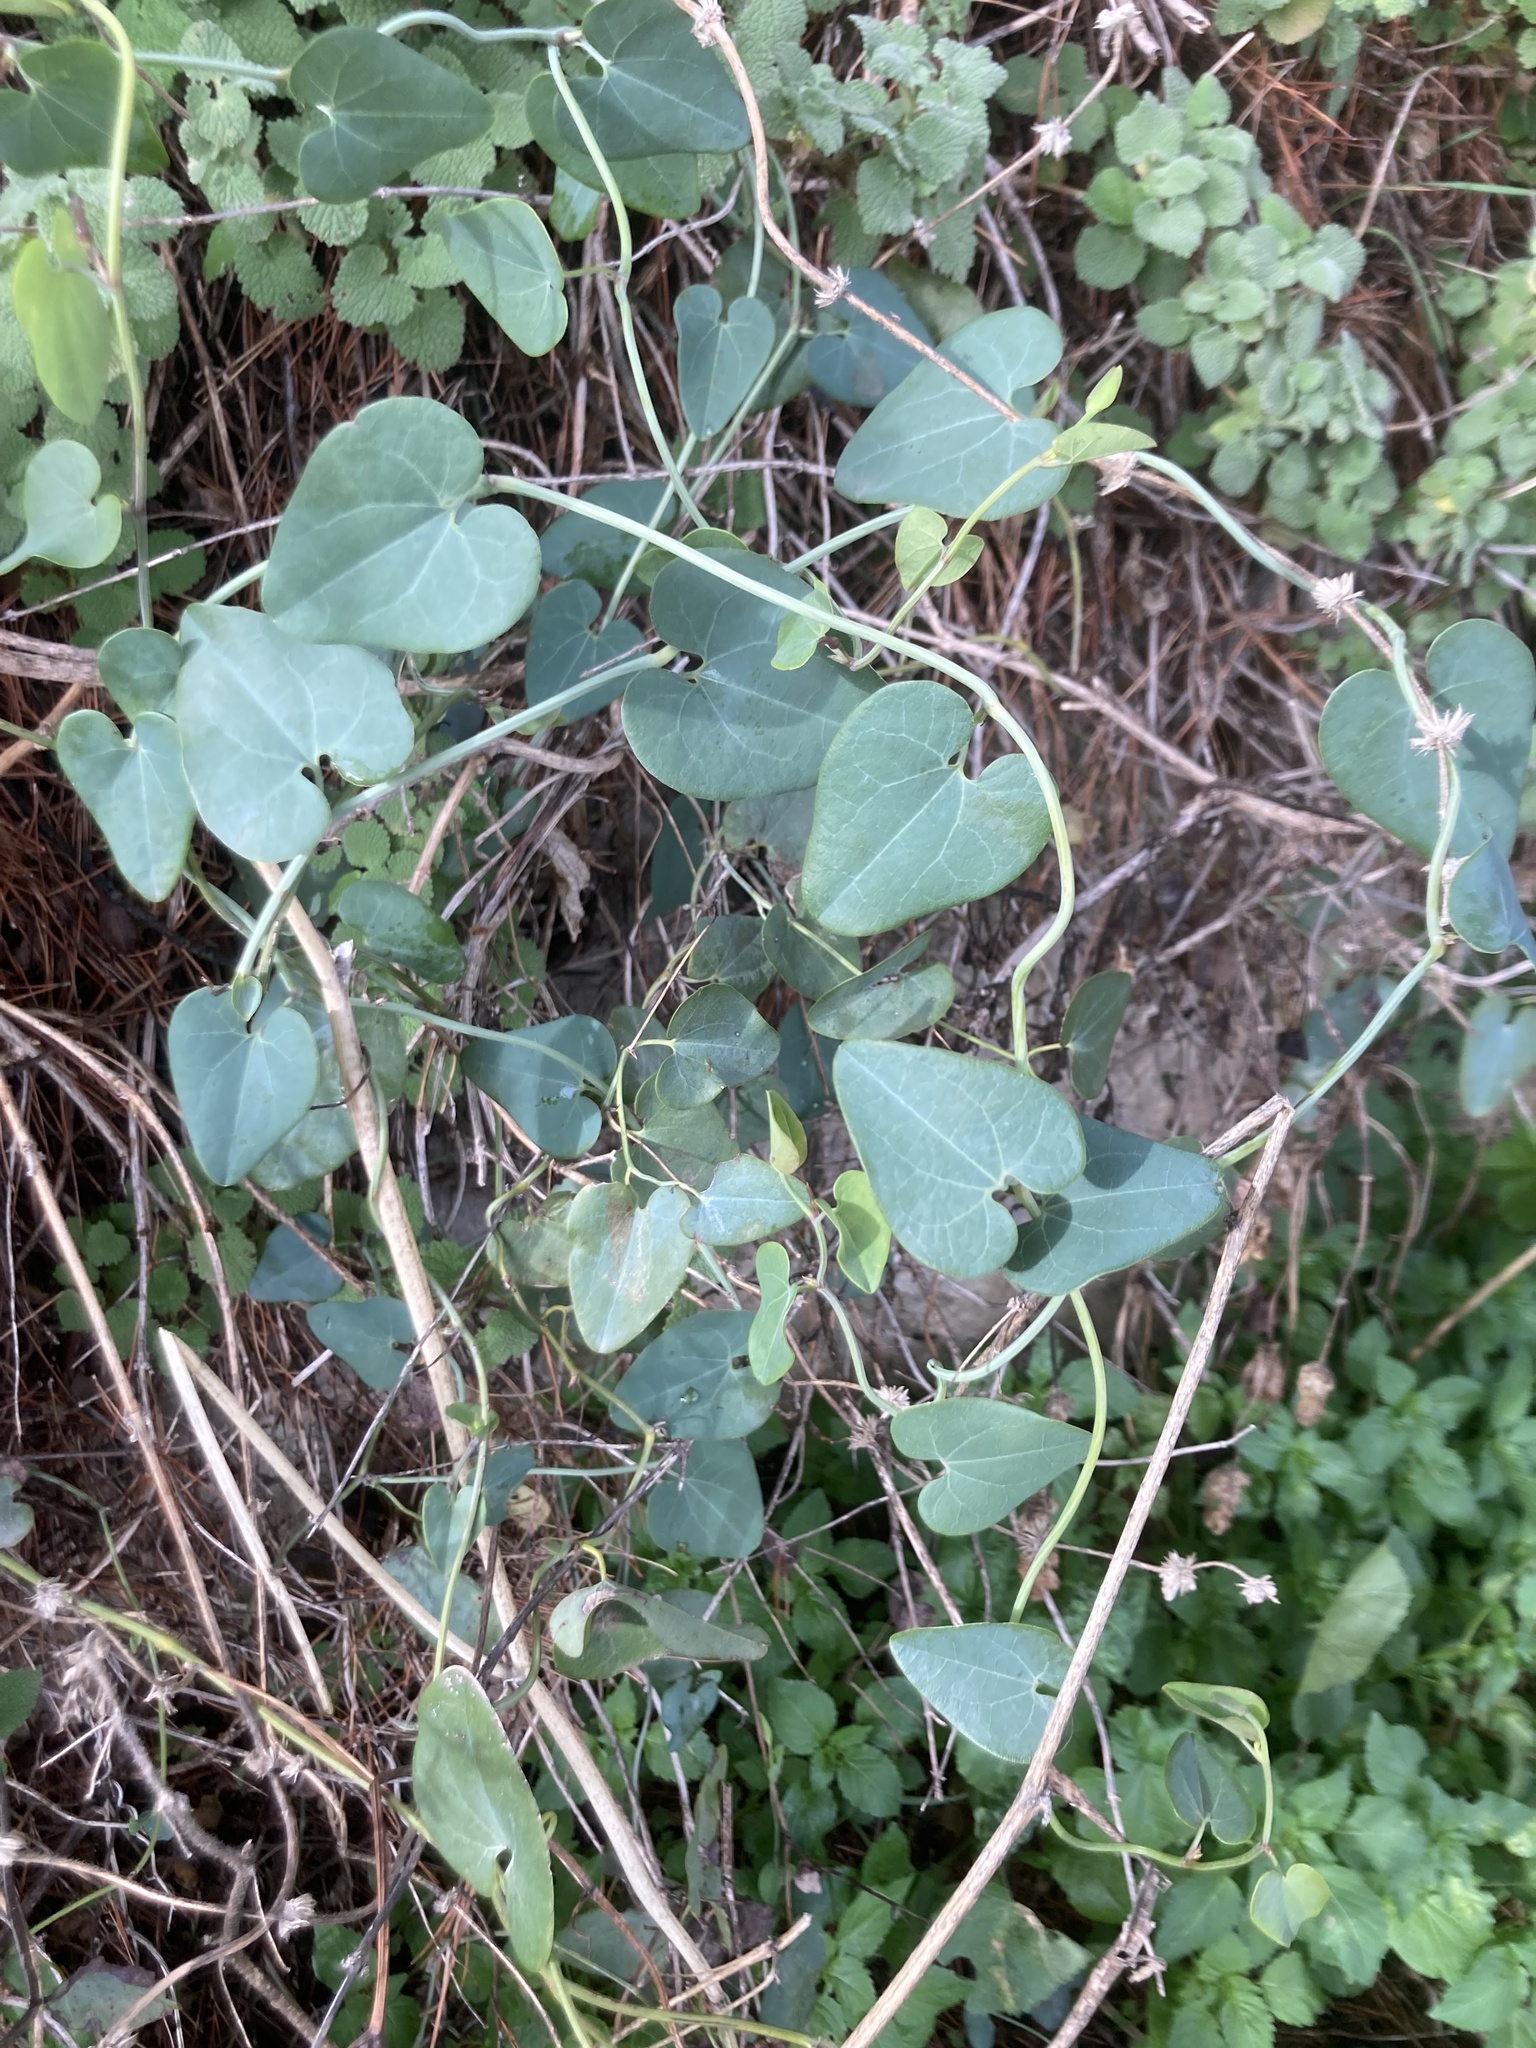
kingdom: Plantae
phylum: Tracheophyta
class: Magnoliopsida
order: Piperales
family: Aristolochiaceae
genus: Aristolochia
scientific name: Aristolochia baetica
